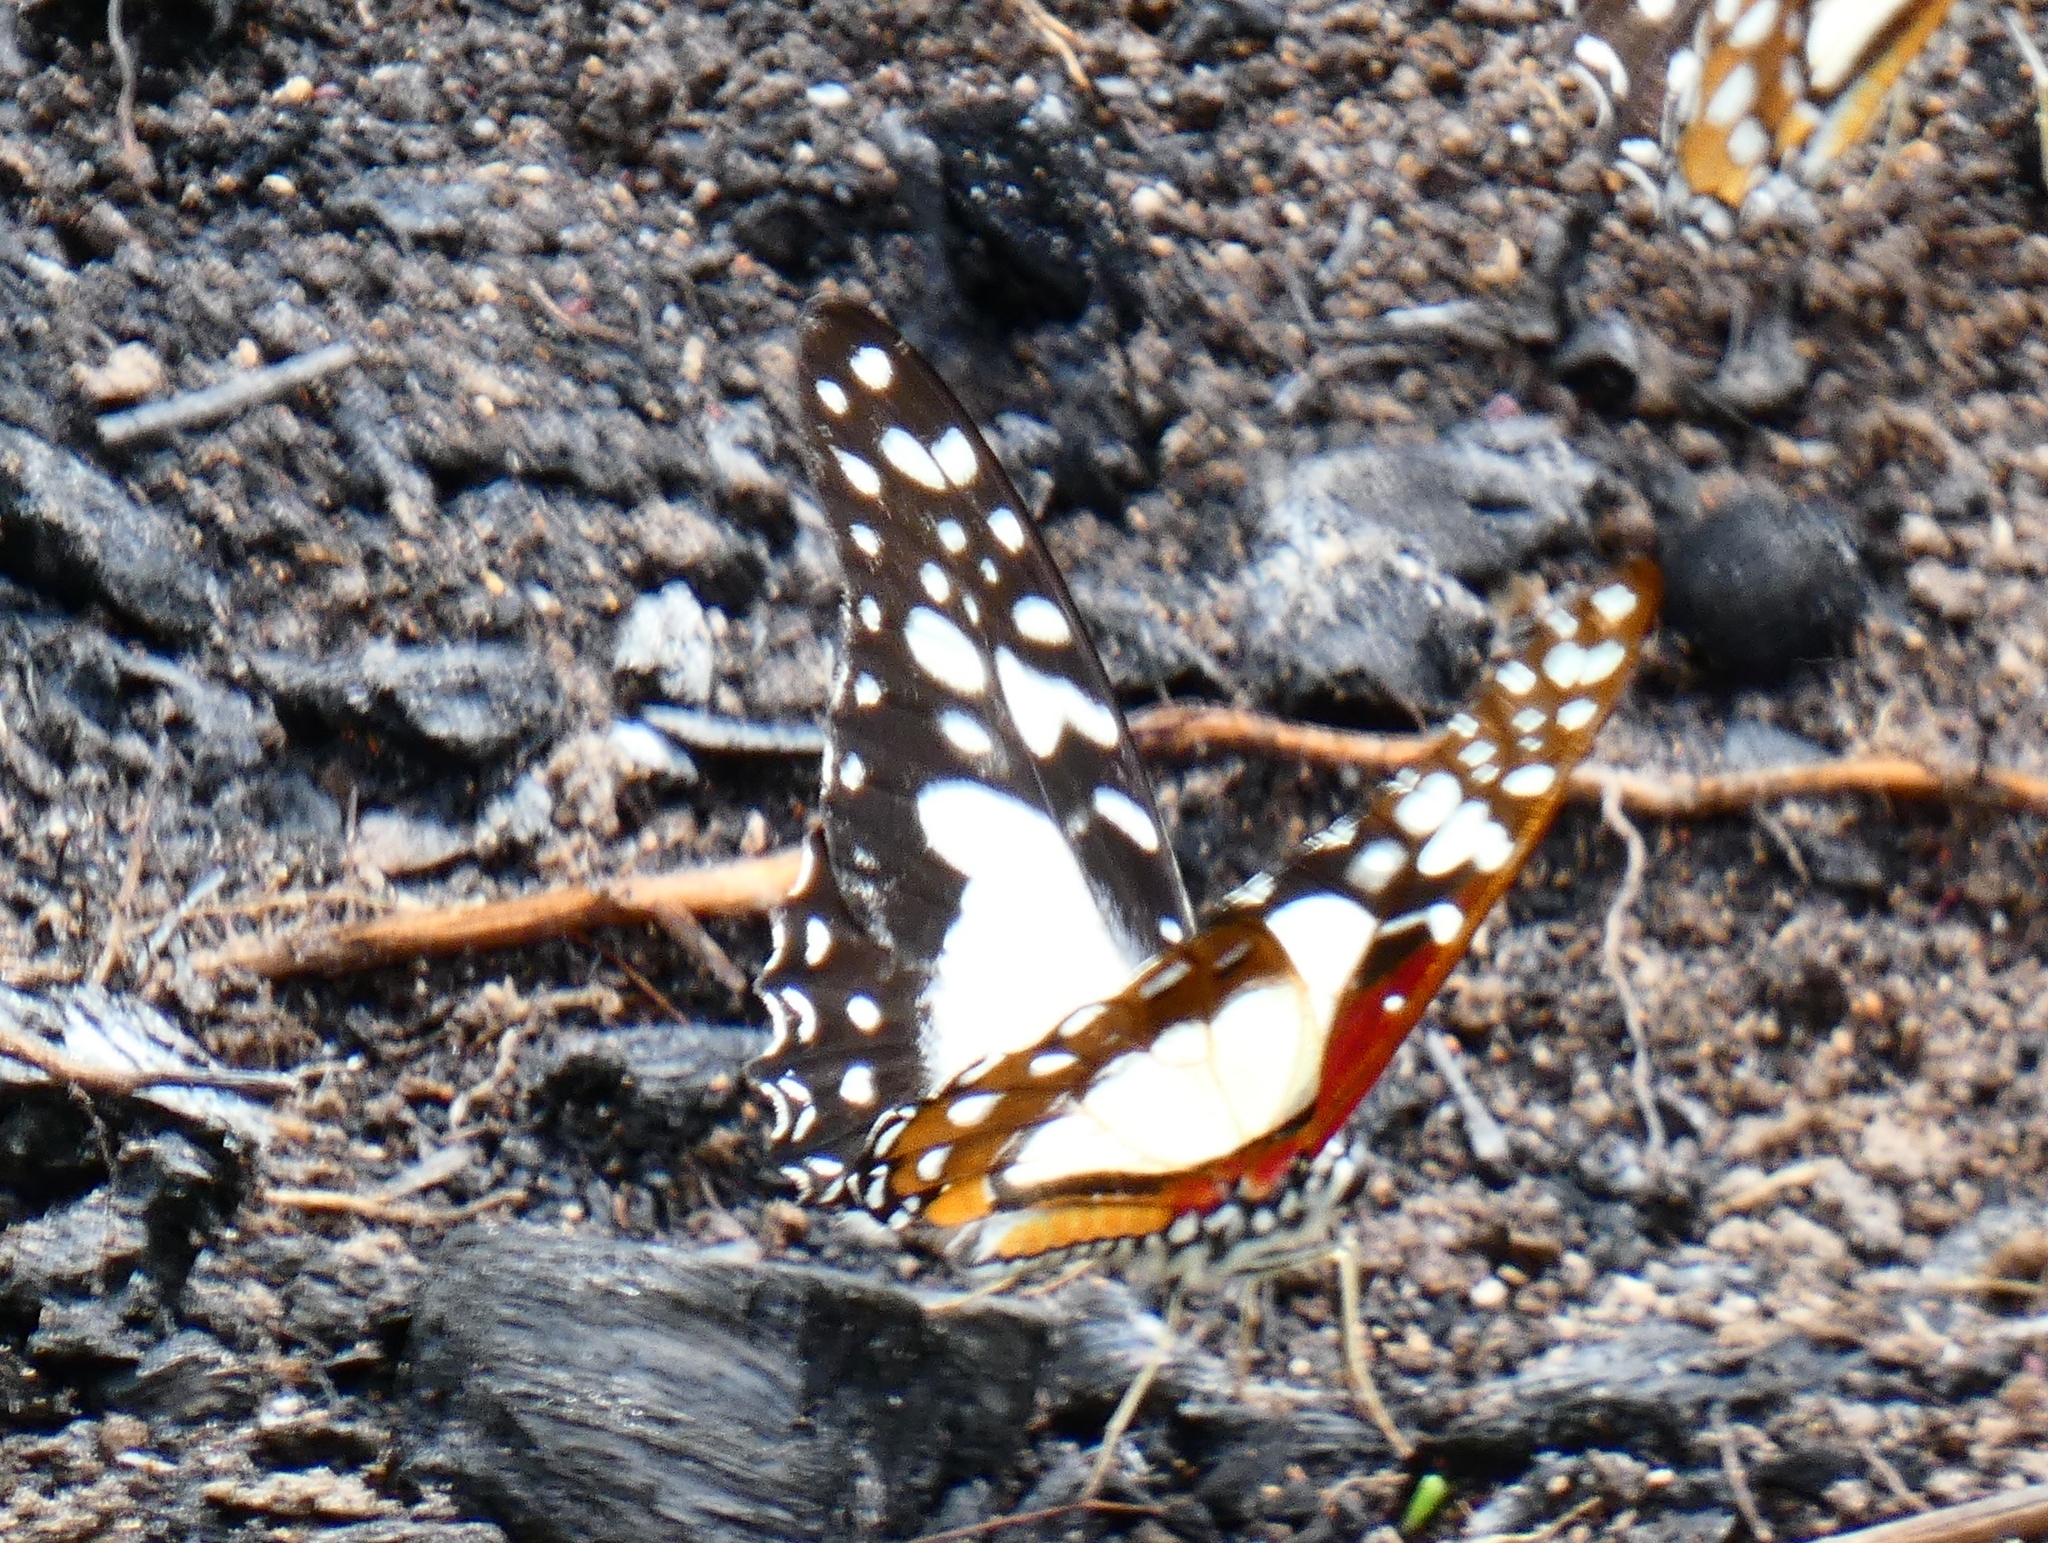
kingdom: Animalia
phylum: Arthropoda
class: Insecta
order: Lepidoptera
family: Papilionidae
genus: Graphium
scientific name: Graphium angolanus
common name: Angola white-lady swordtail
